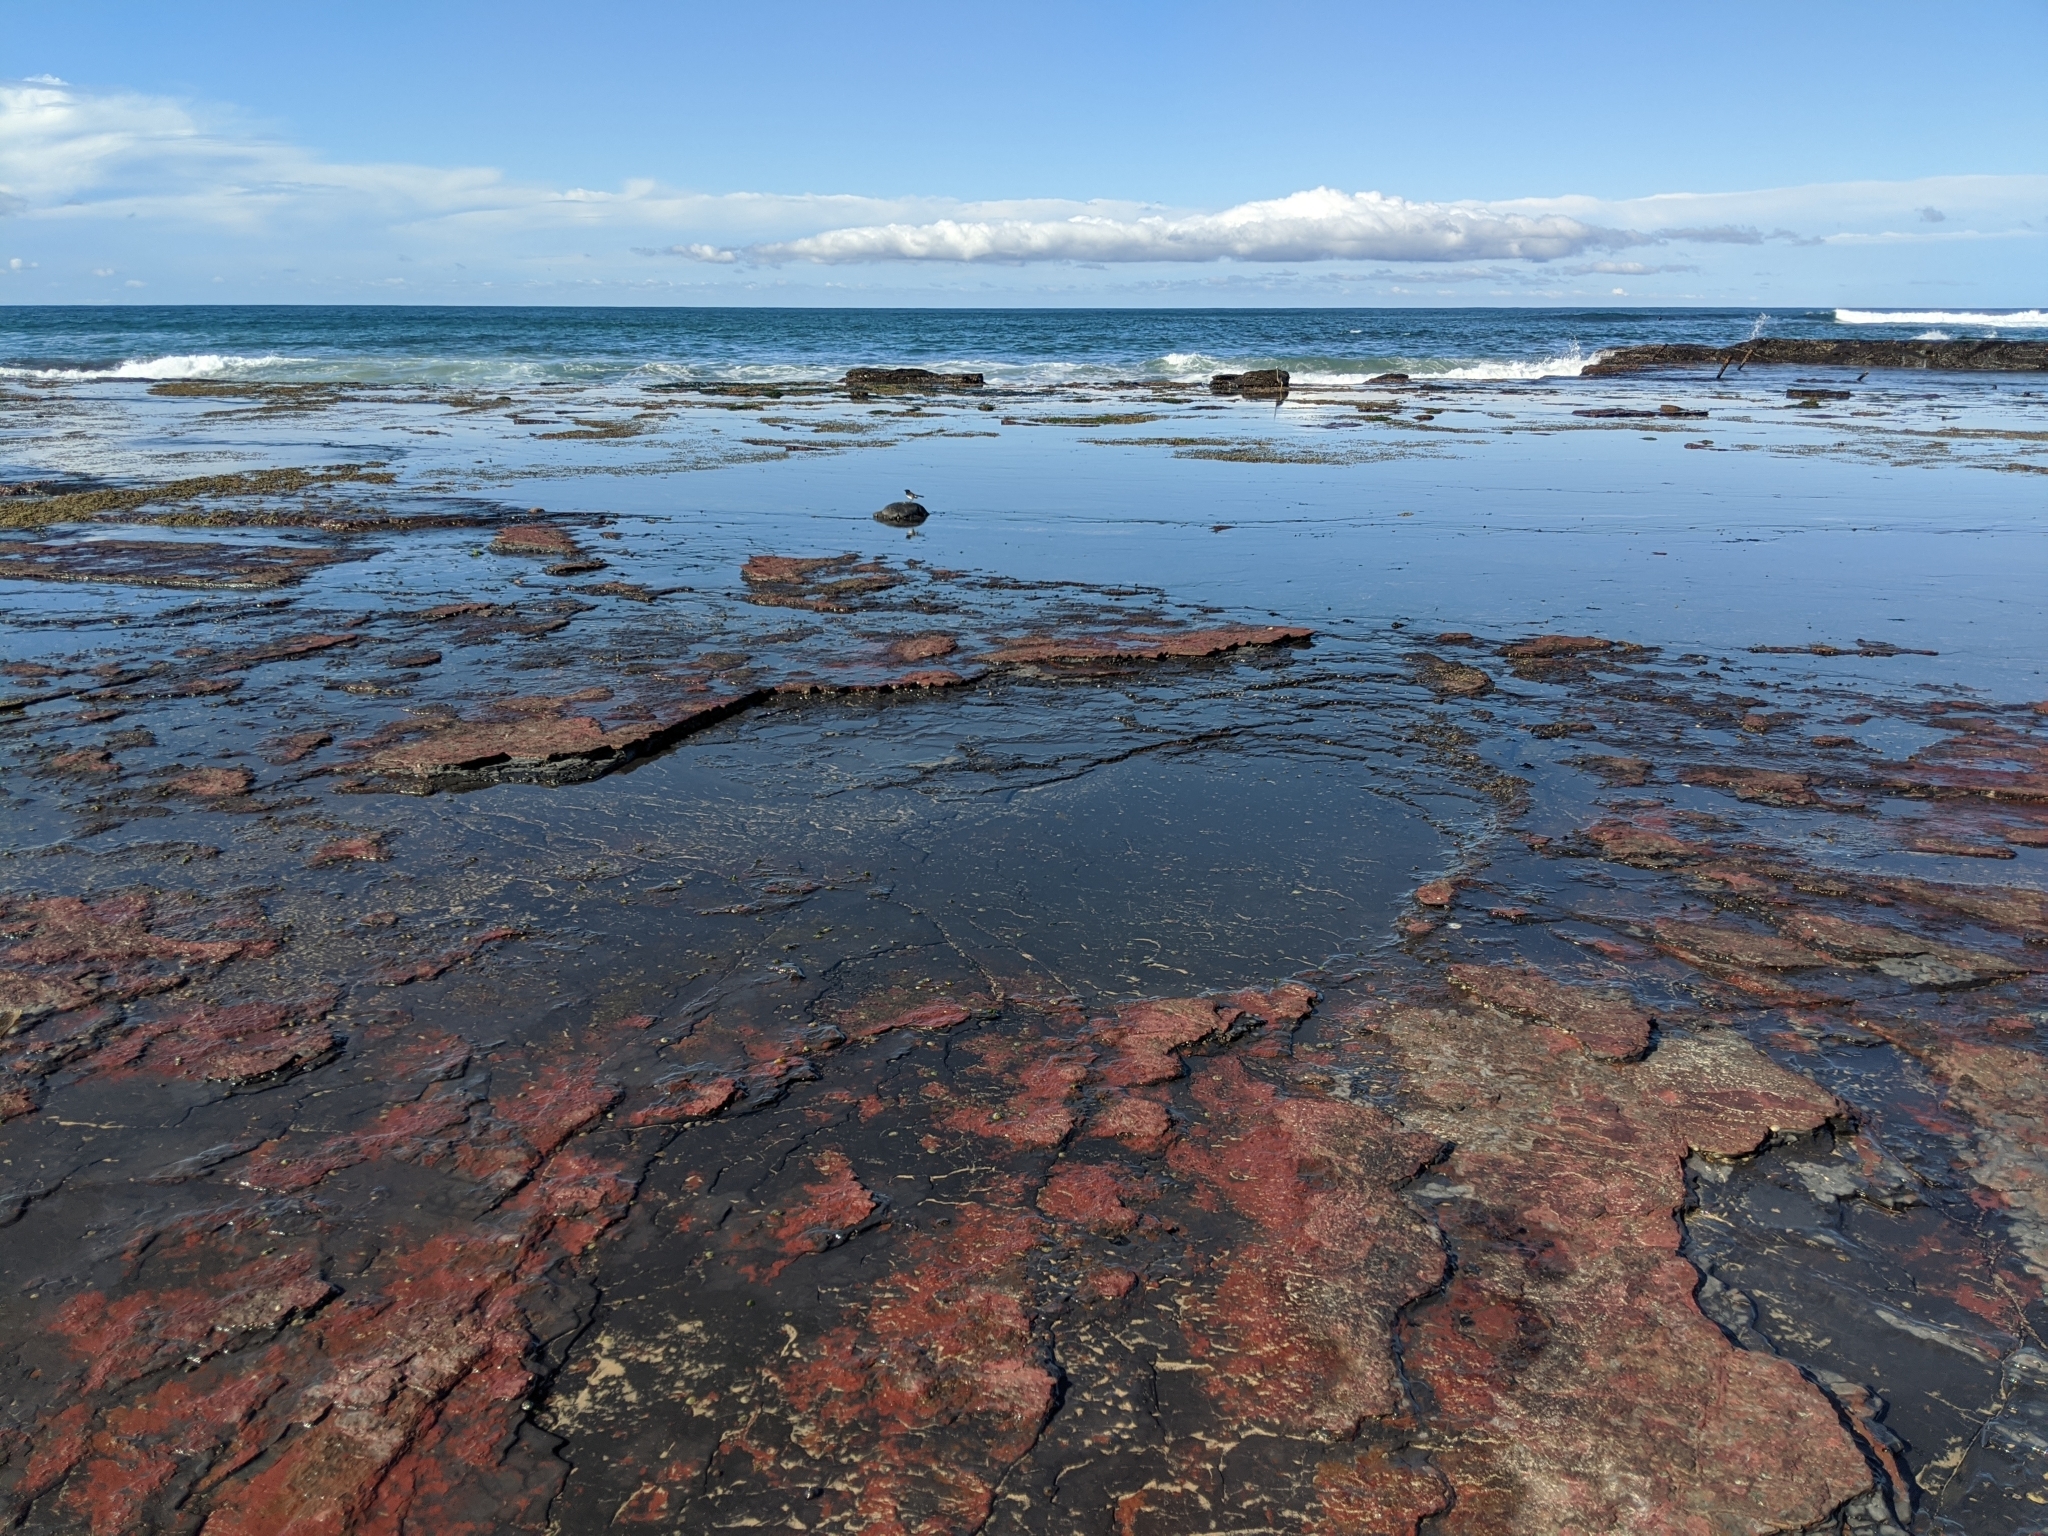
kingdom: Animalia
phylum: Chordata
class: Aves
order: Passeriformes
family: Rhipiduridae
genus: Rhipidura
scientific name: Rhipidura leucophrys
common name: Willie wagtail
